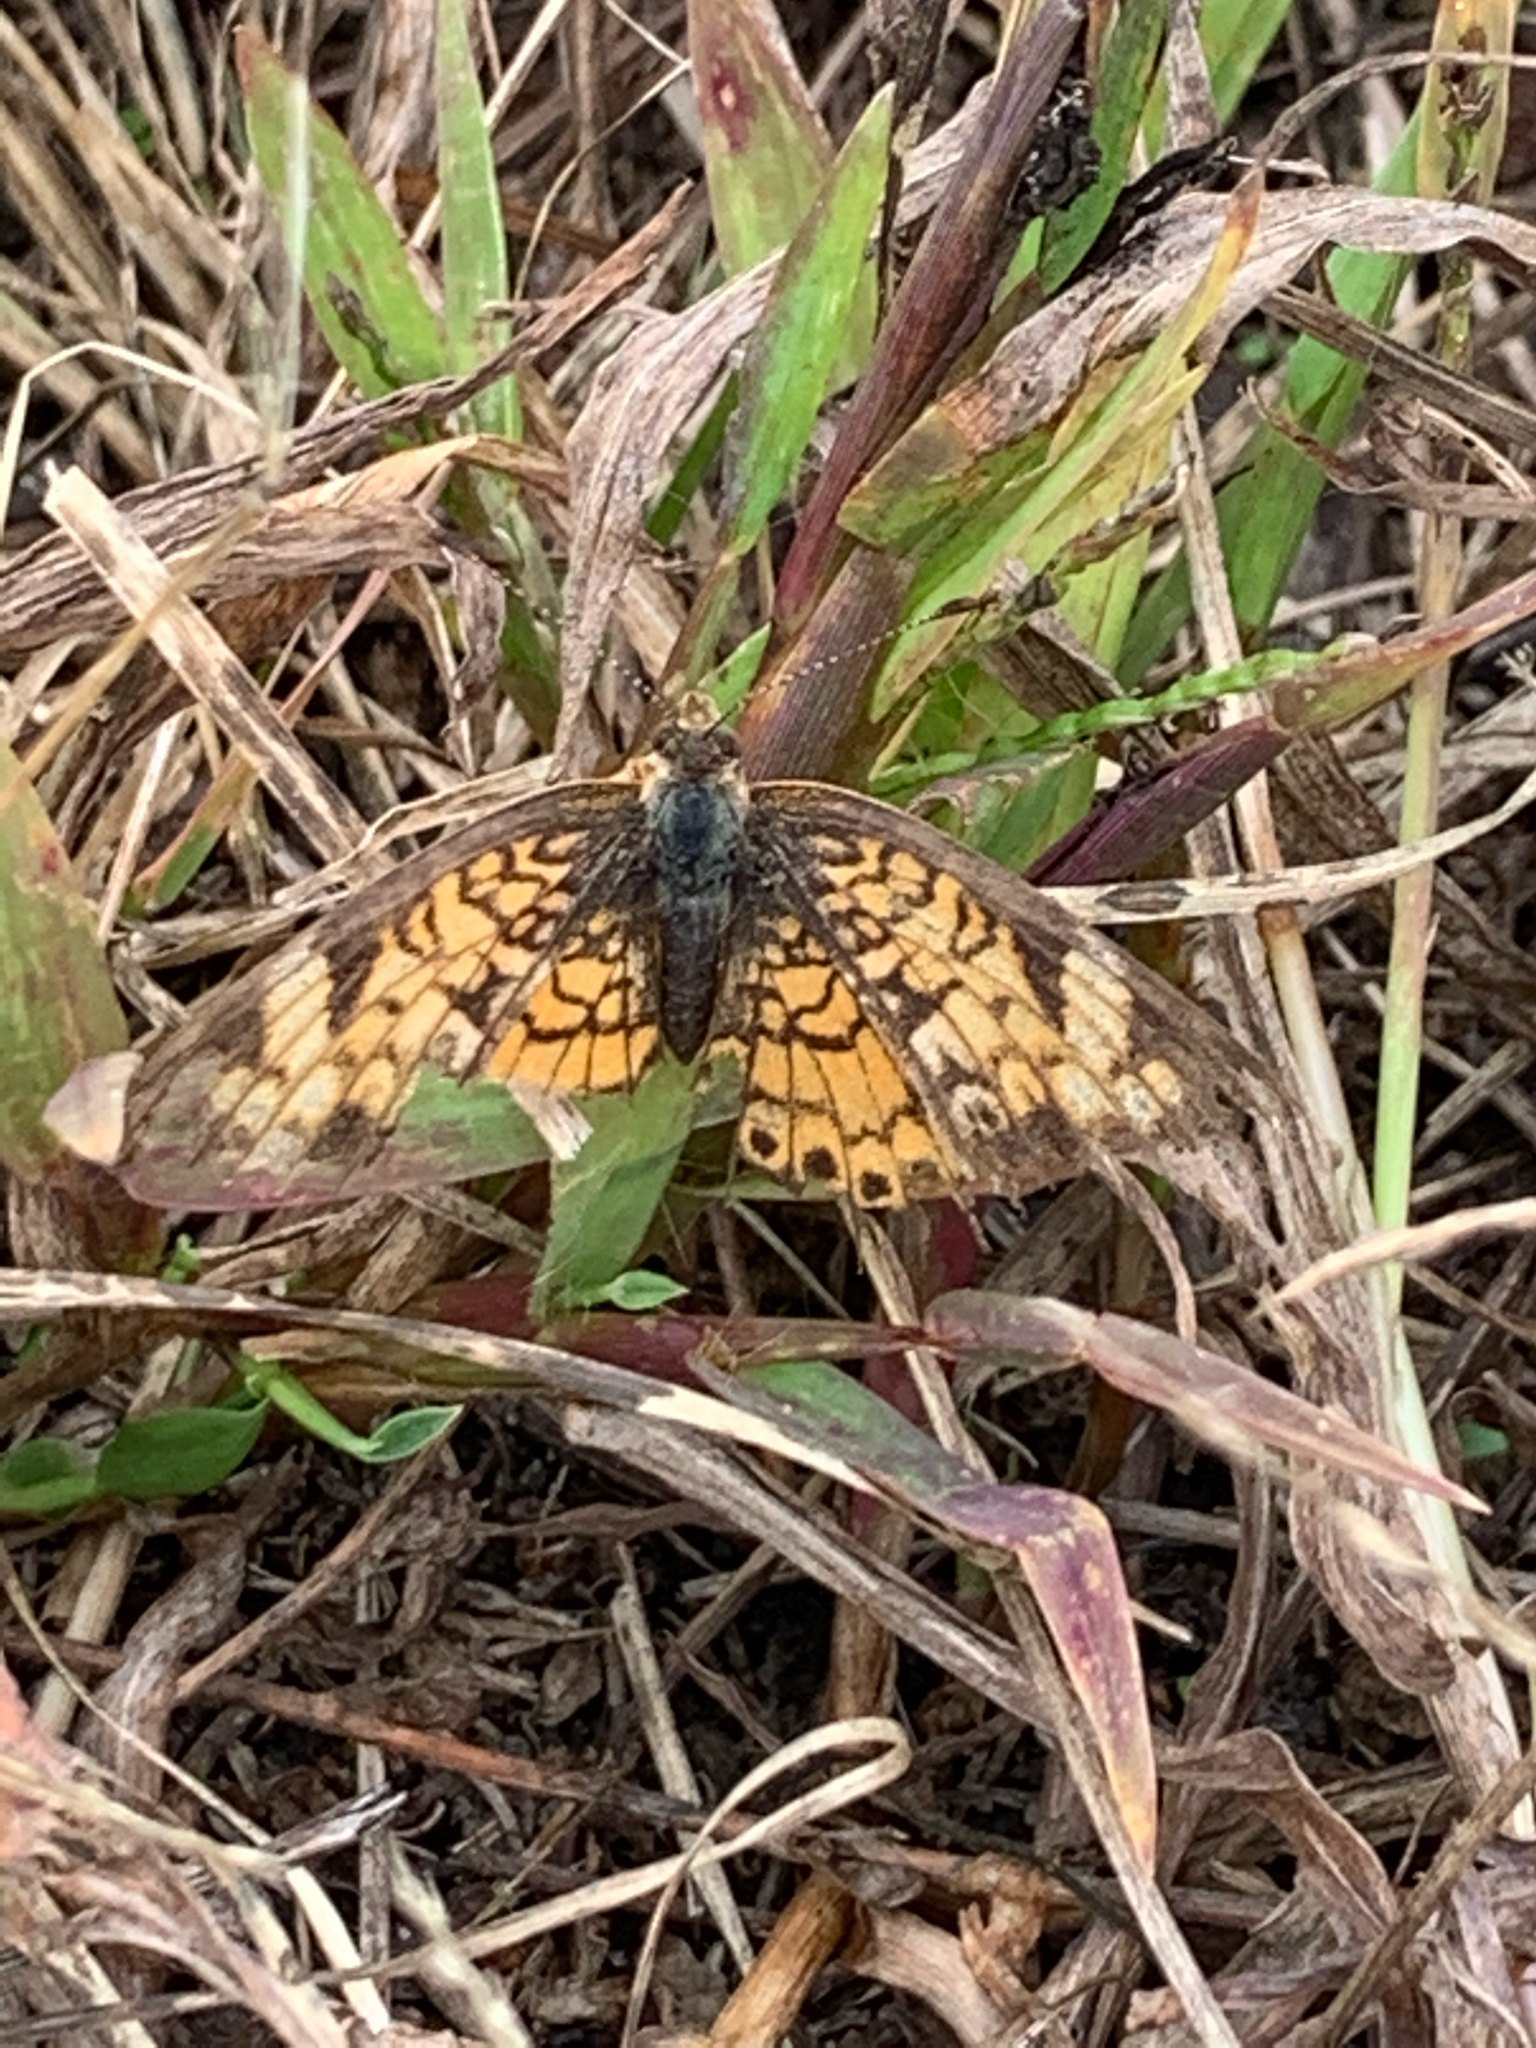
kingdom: Animalia
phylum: Arthropoda
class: Insecta
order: Lepidoptera
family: Nymphalidae
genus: Phyciodes
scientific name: Phyciodes tharos
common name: Pearl crescent
